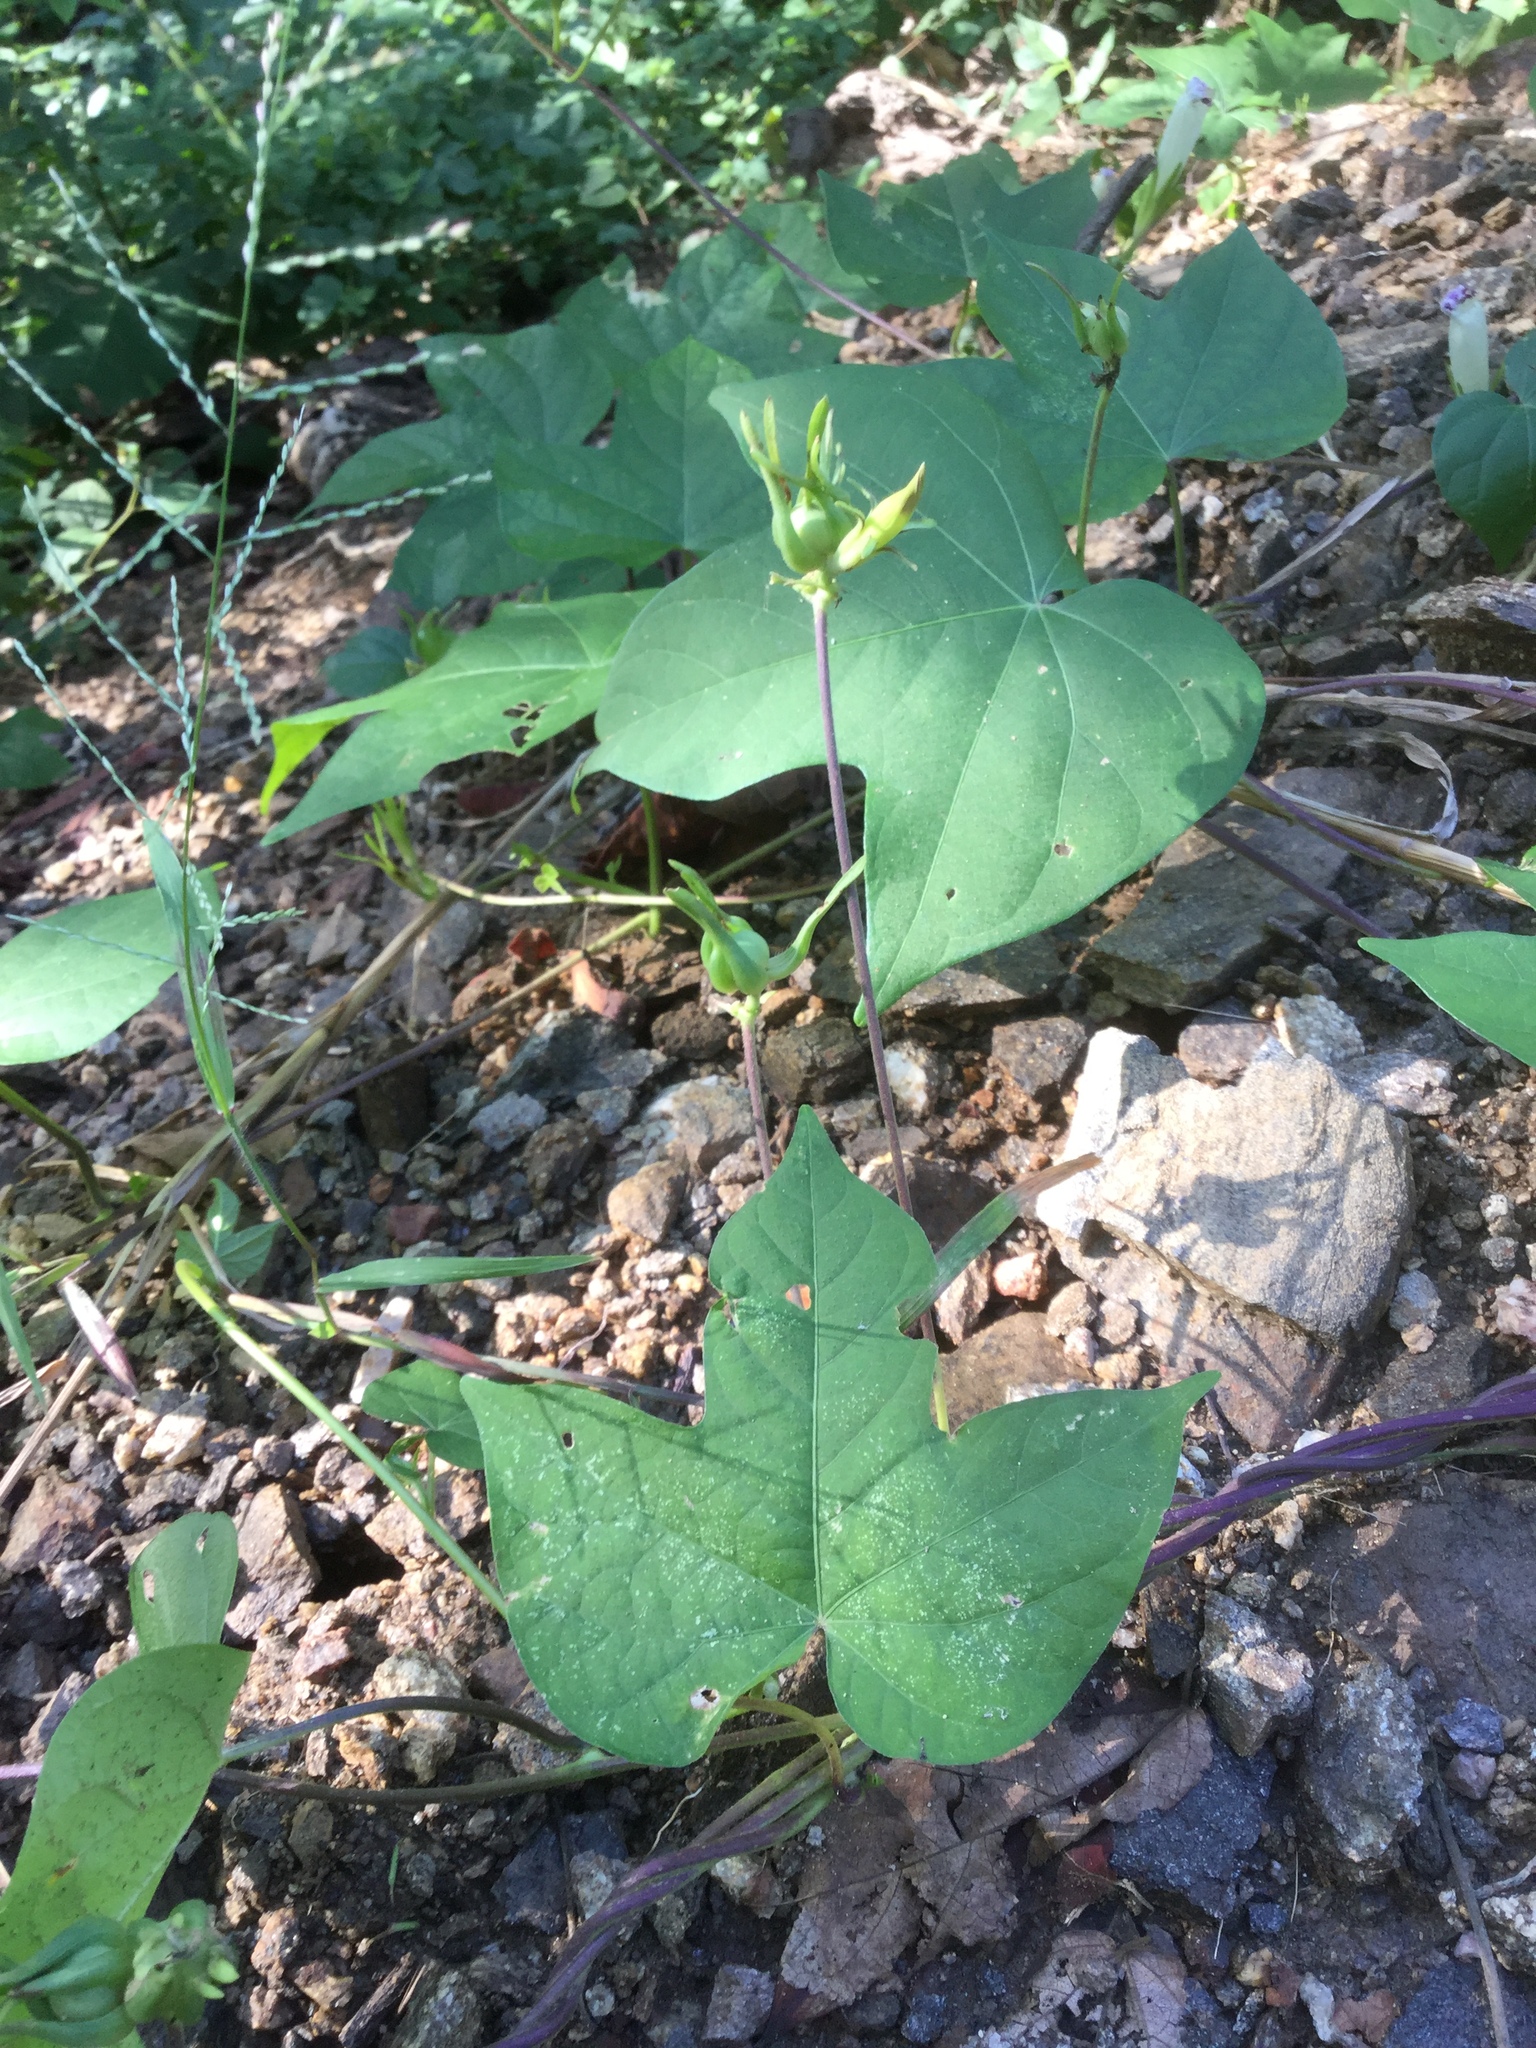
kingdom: Plantae
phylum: Tracheophyta
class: Magnoliopsida
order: Solanales
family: Convolvulaceae
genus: Ipomoea
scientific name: Ipomoea nil
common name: Japanese morning-glory
